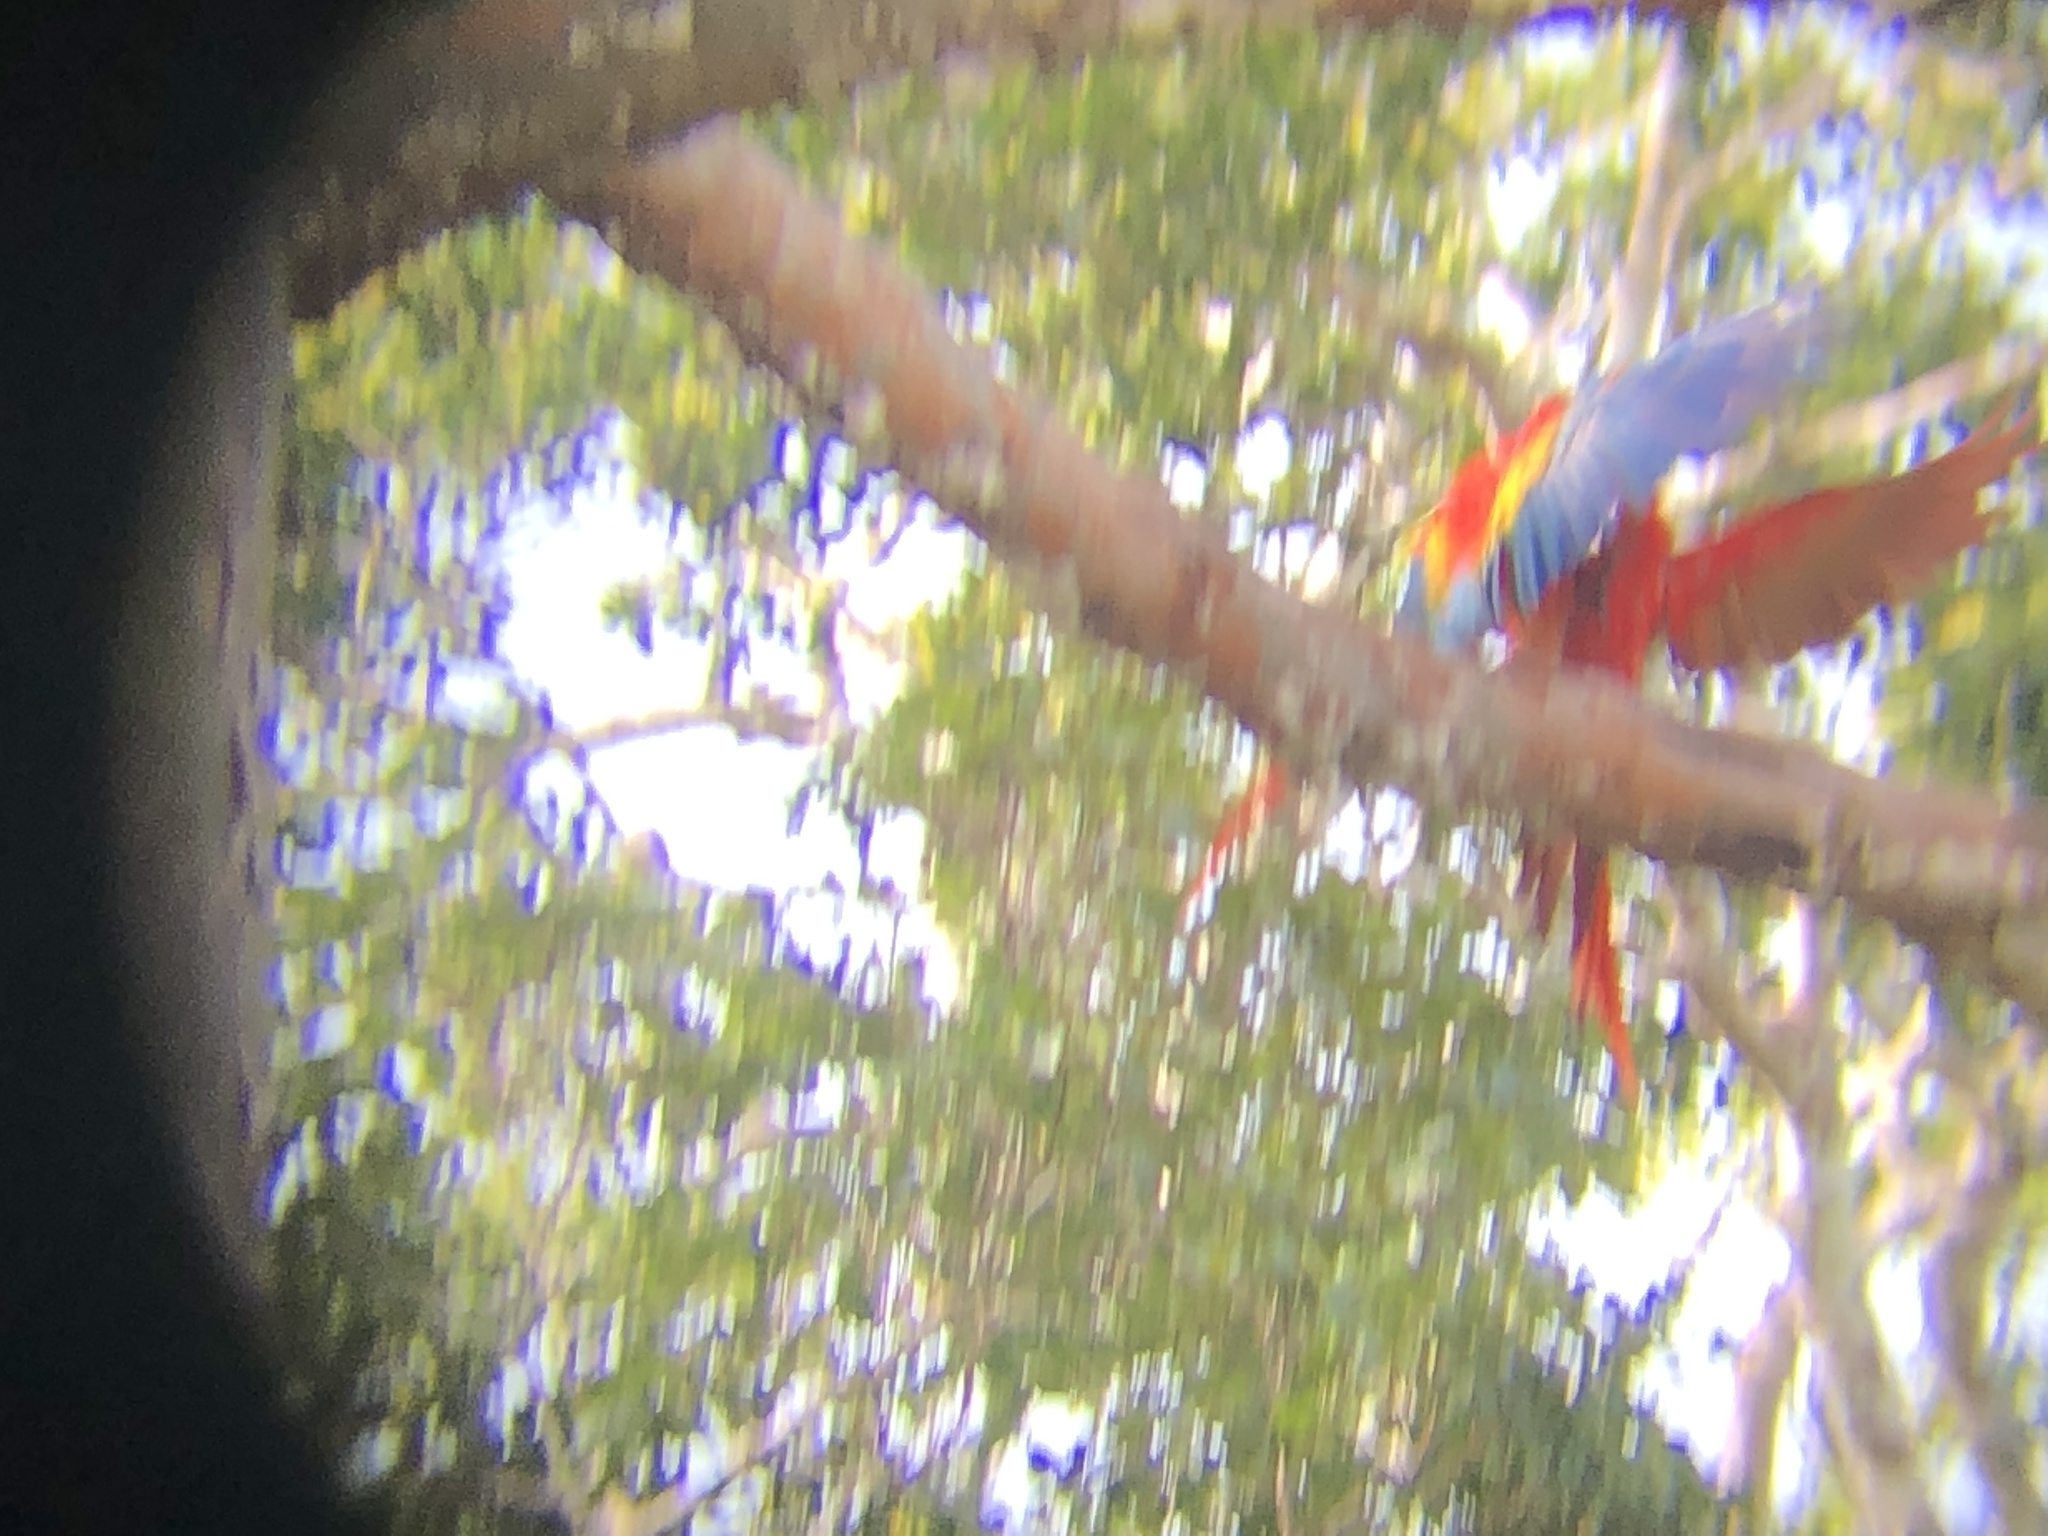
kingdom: Animalia
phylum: Chordata
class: Aves
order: Psittaciformes
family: Psittacidae
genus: Ara
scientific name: Ara macao
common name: Scarlet macaw
